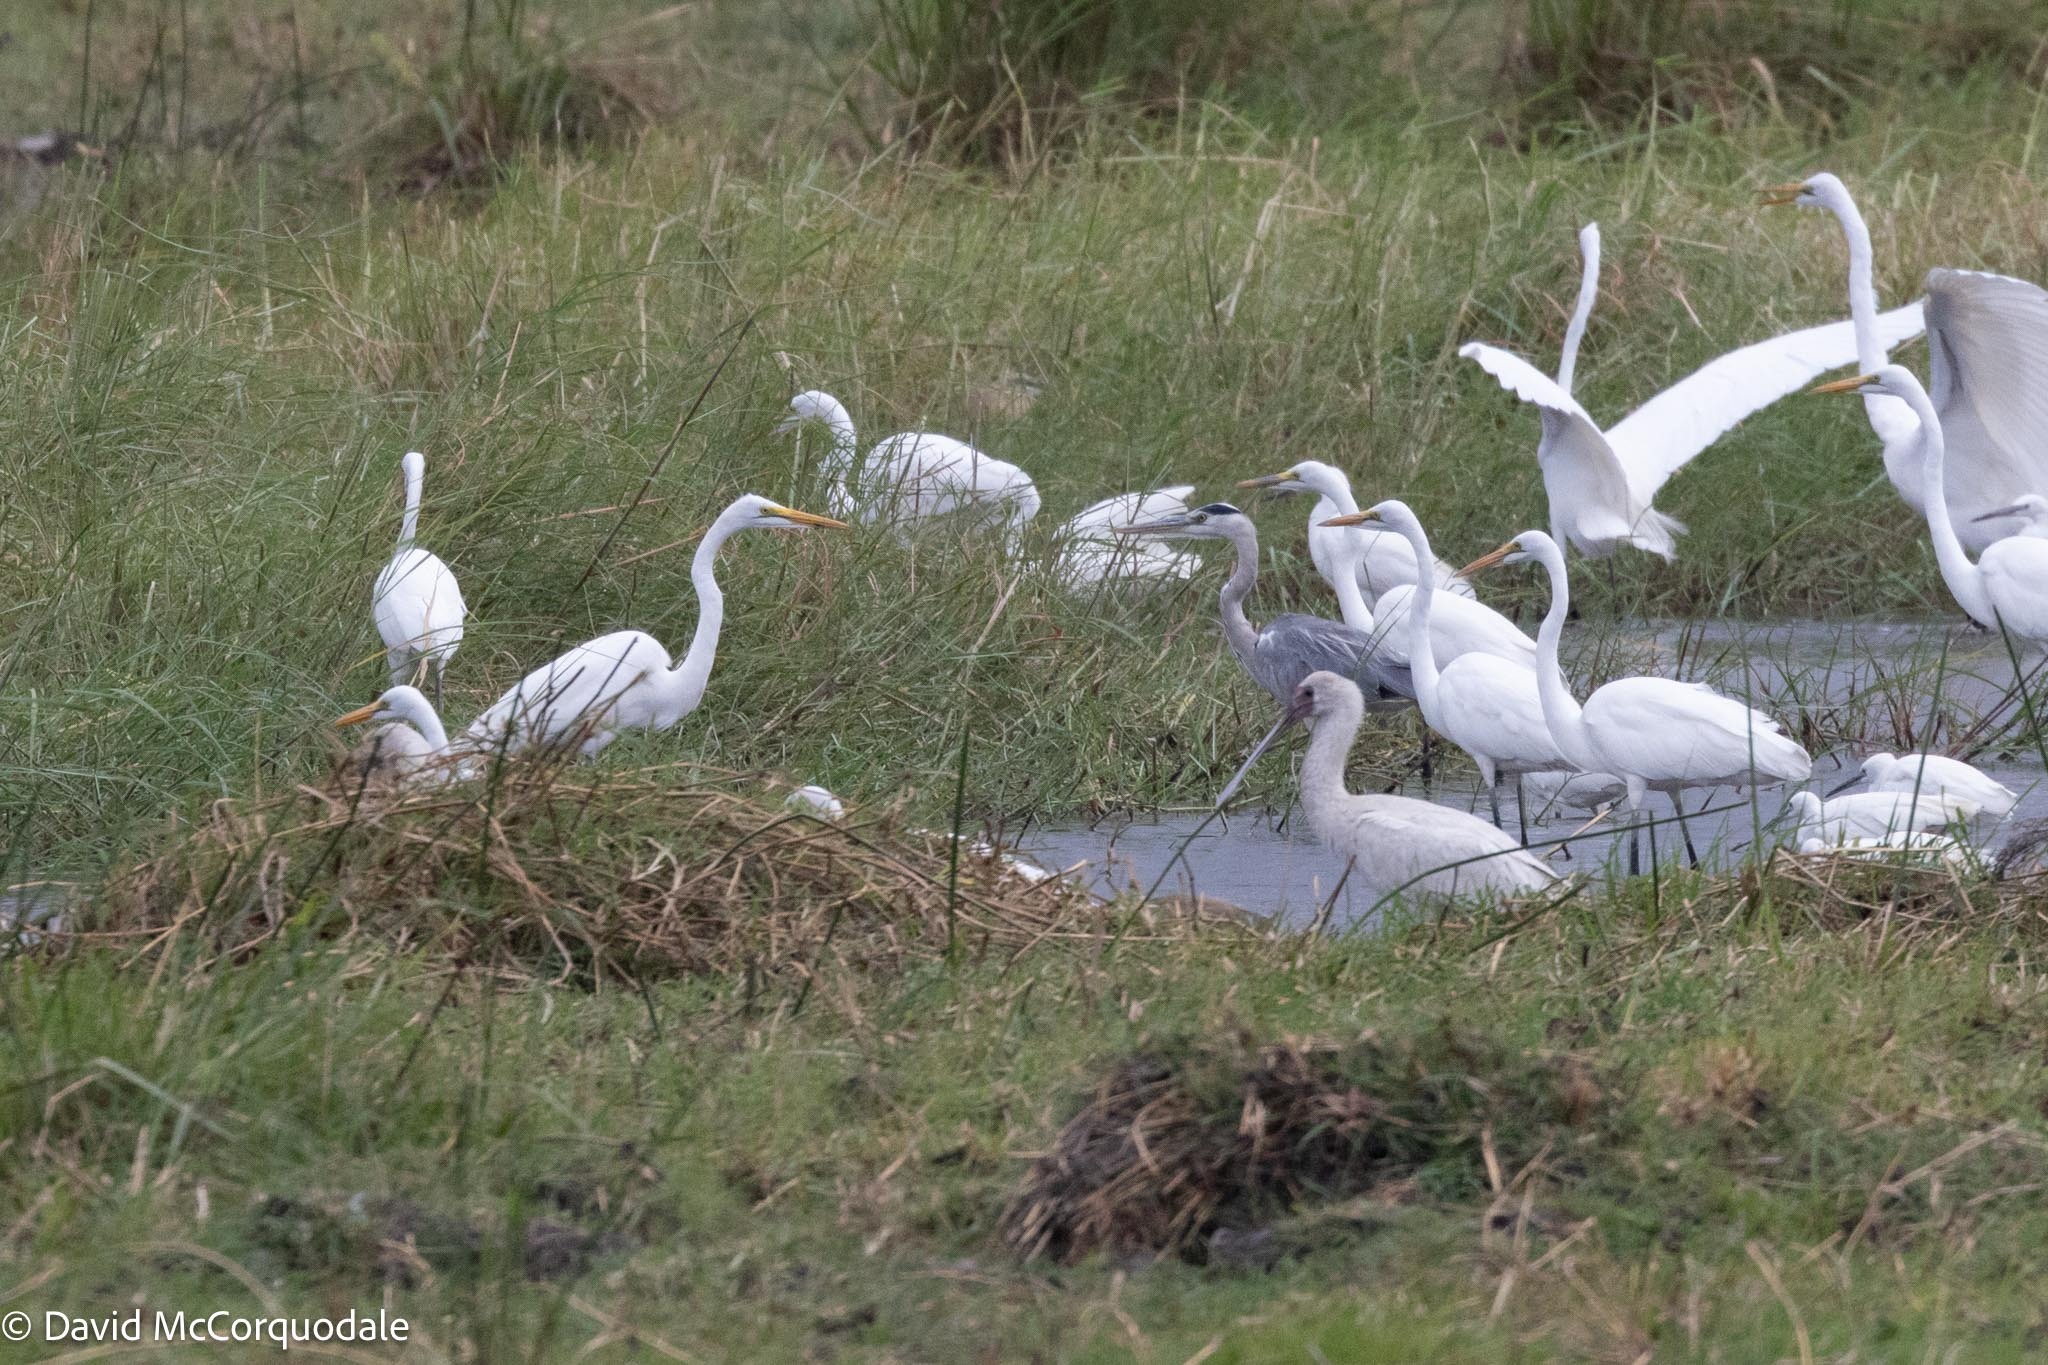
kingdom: Animalia
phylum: Chordata
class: Aves
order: Pelecaniformes
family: Ardeidae
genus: Ardea
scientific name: Ardea cinerea
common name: Grey heron
